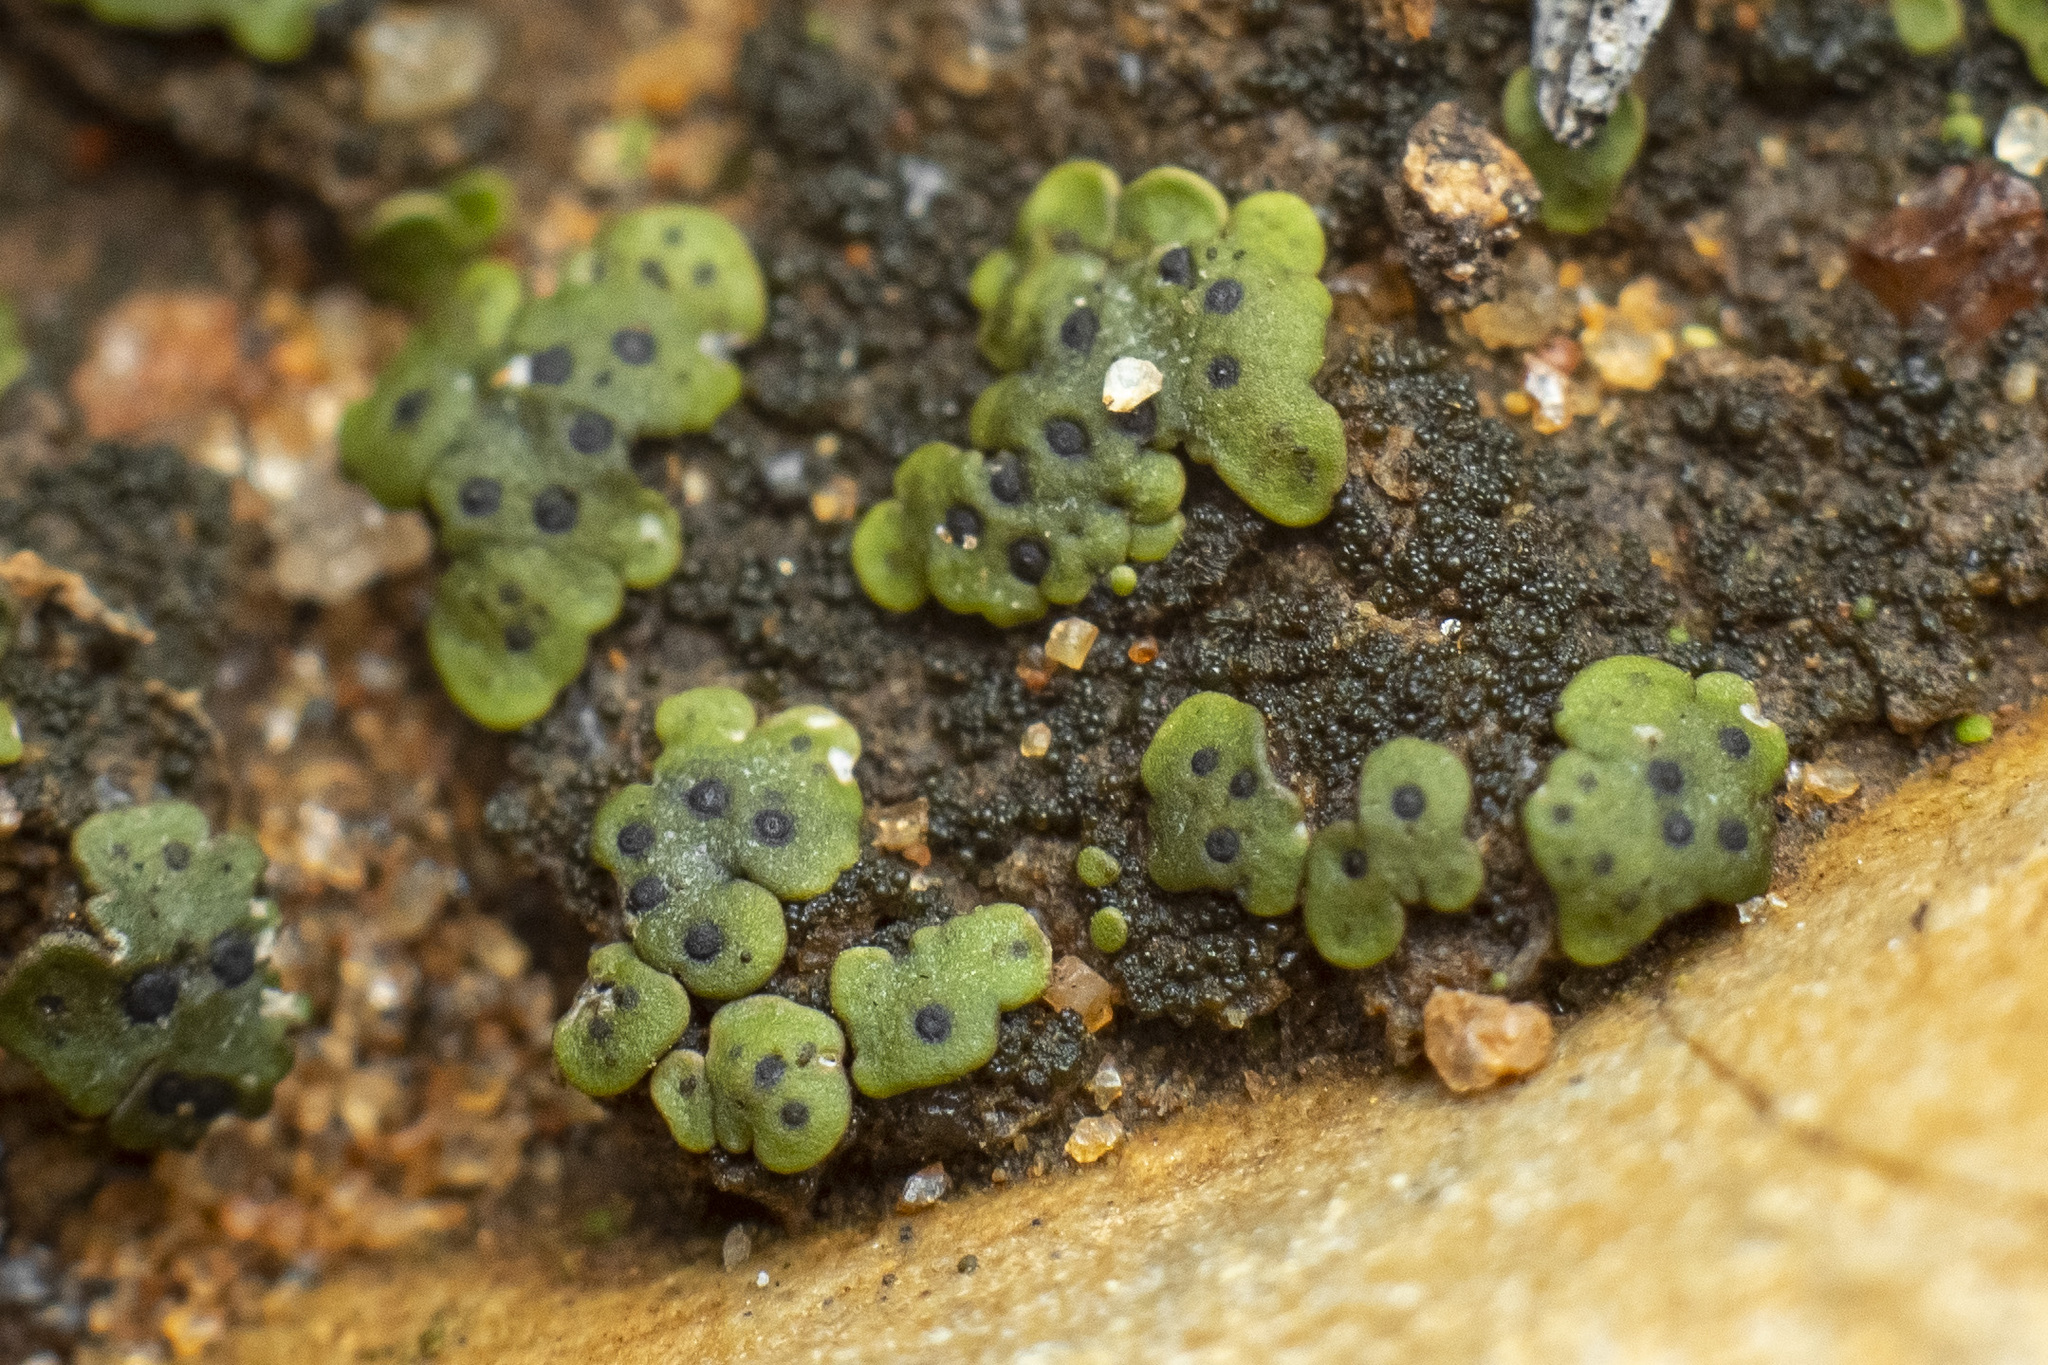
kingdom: Fungi
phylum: Ascomycota
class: Eurotiomycetes
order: Verrucariales
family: Verrucariaceae
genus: Endocarpon
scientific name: Endocarpon pallidulum
